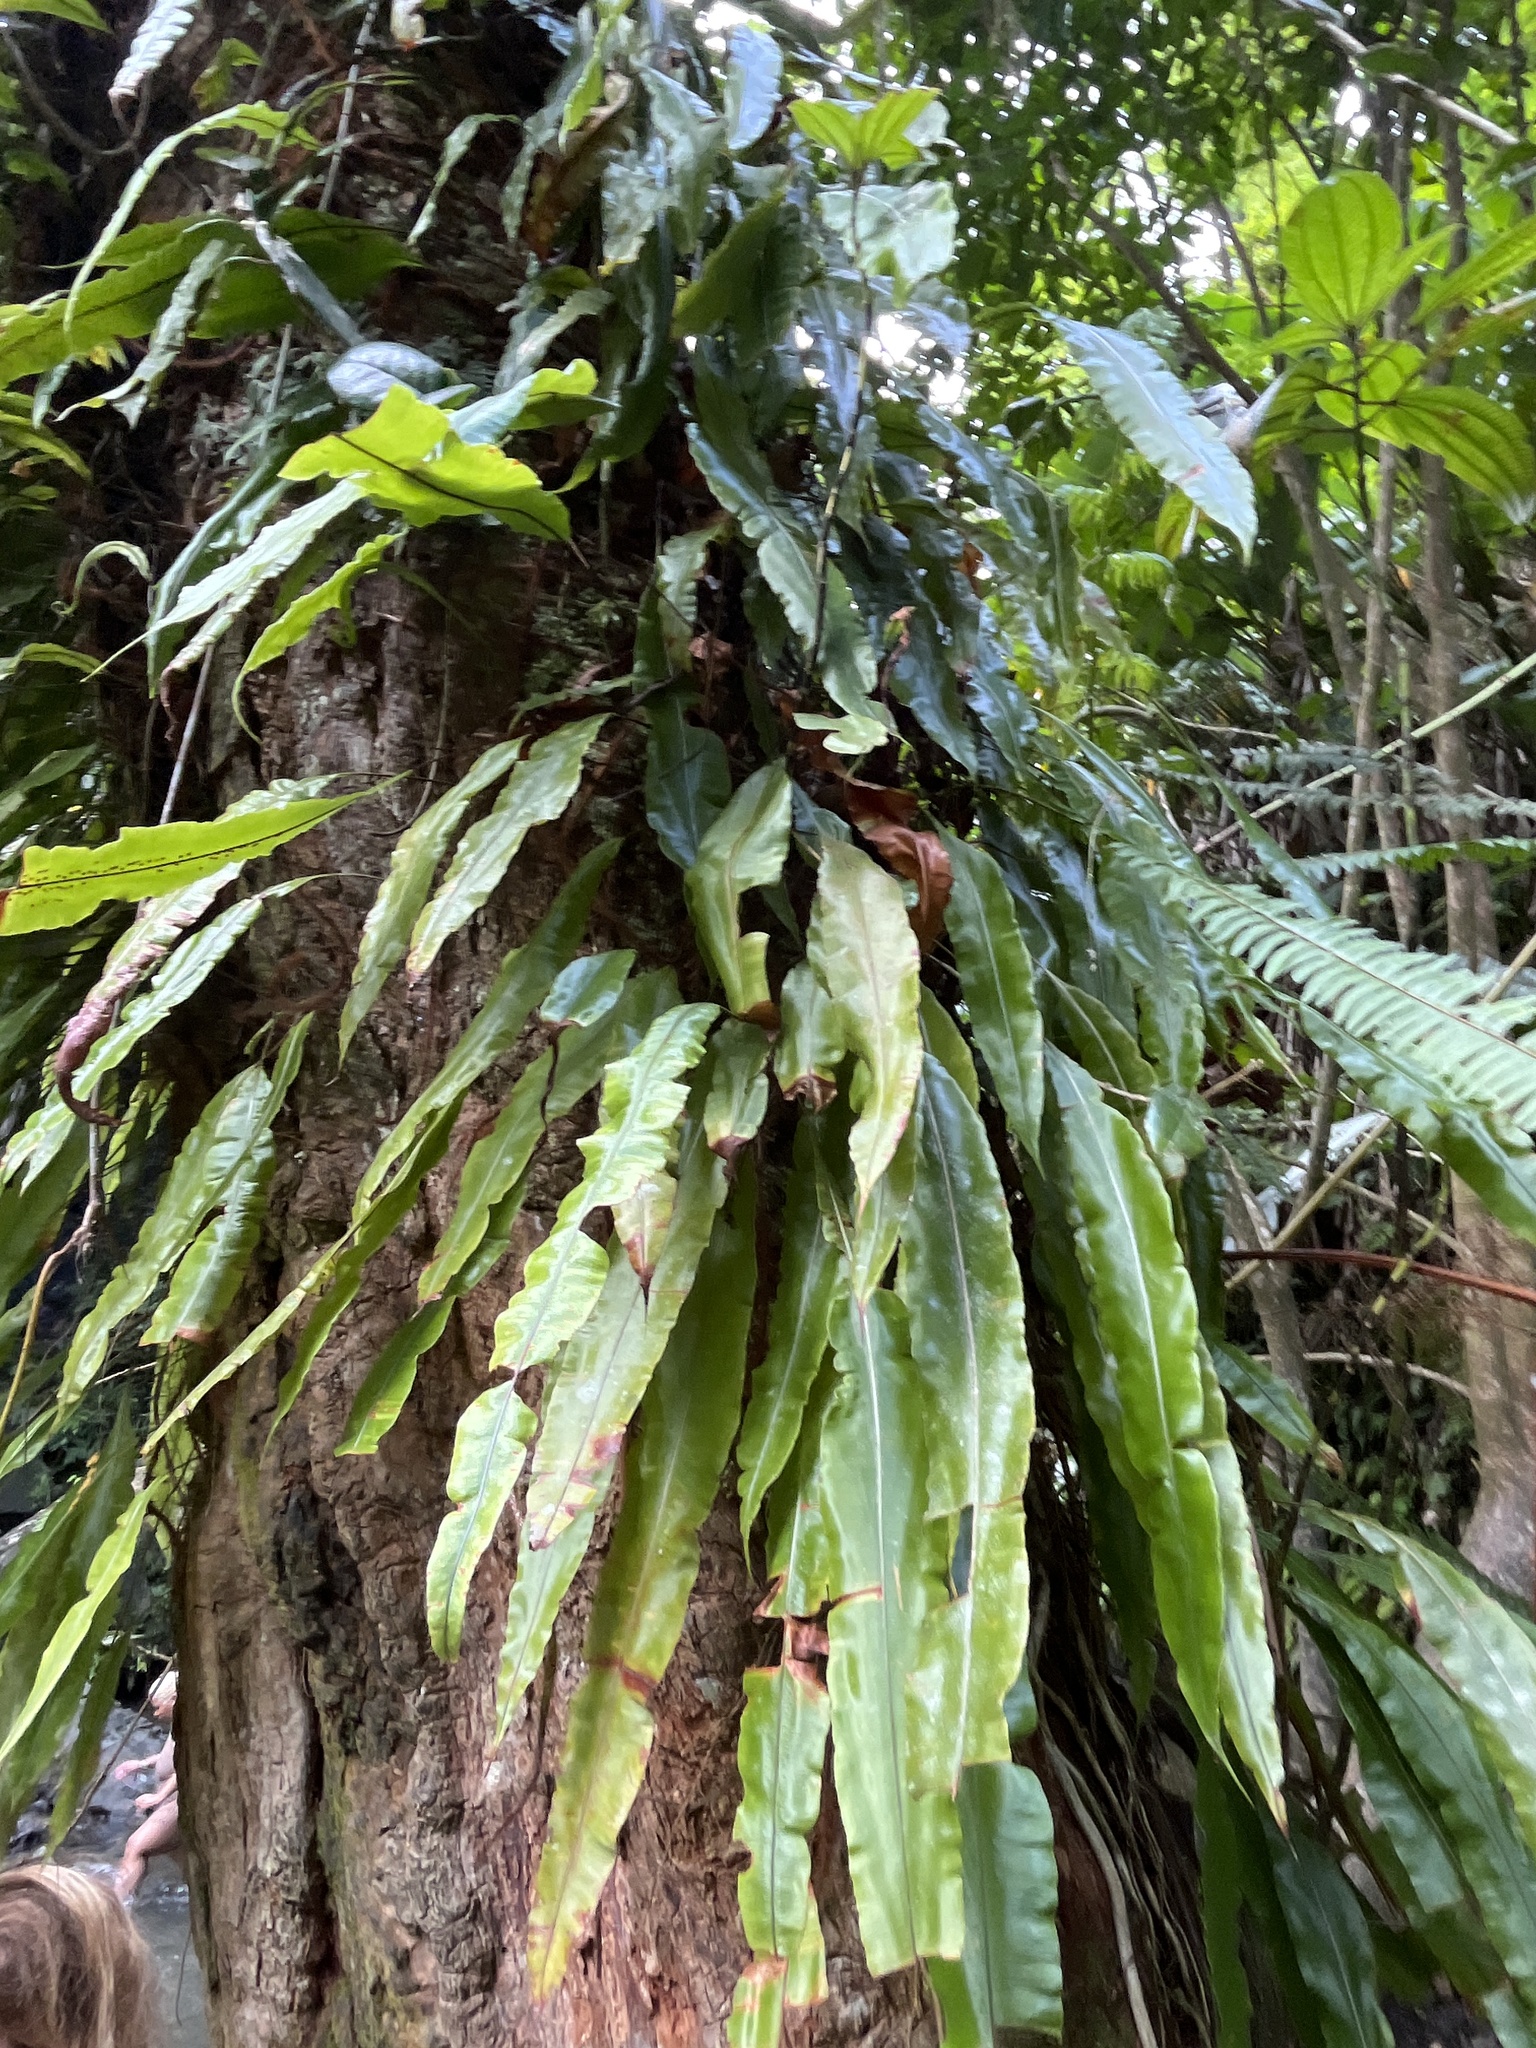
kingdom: Plantae
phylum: Tracheophyta
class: Polypodiopsida
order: Polypodiales
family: Oleandraceae
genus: Oleandra
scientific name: Oleandra articulata
